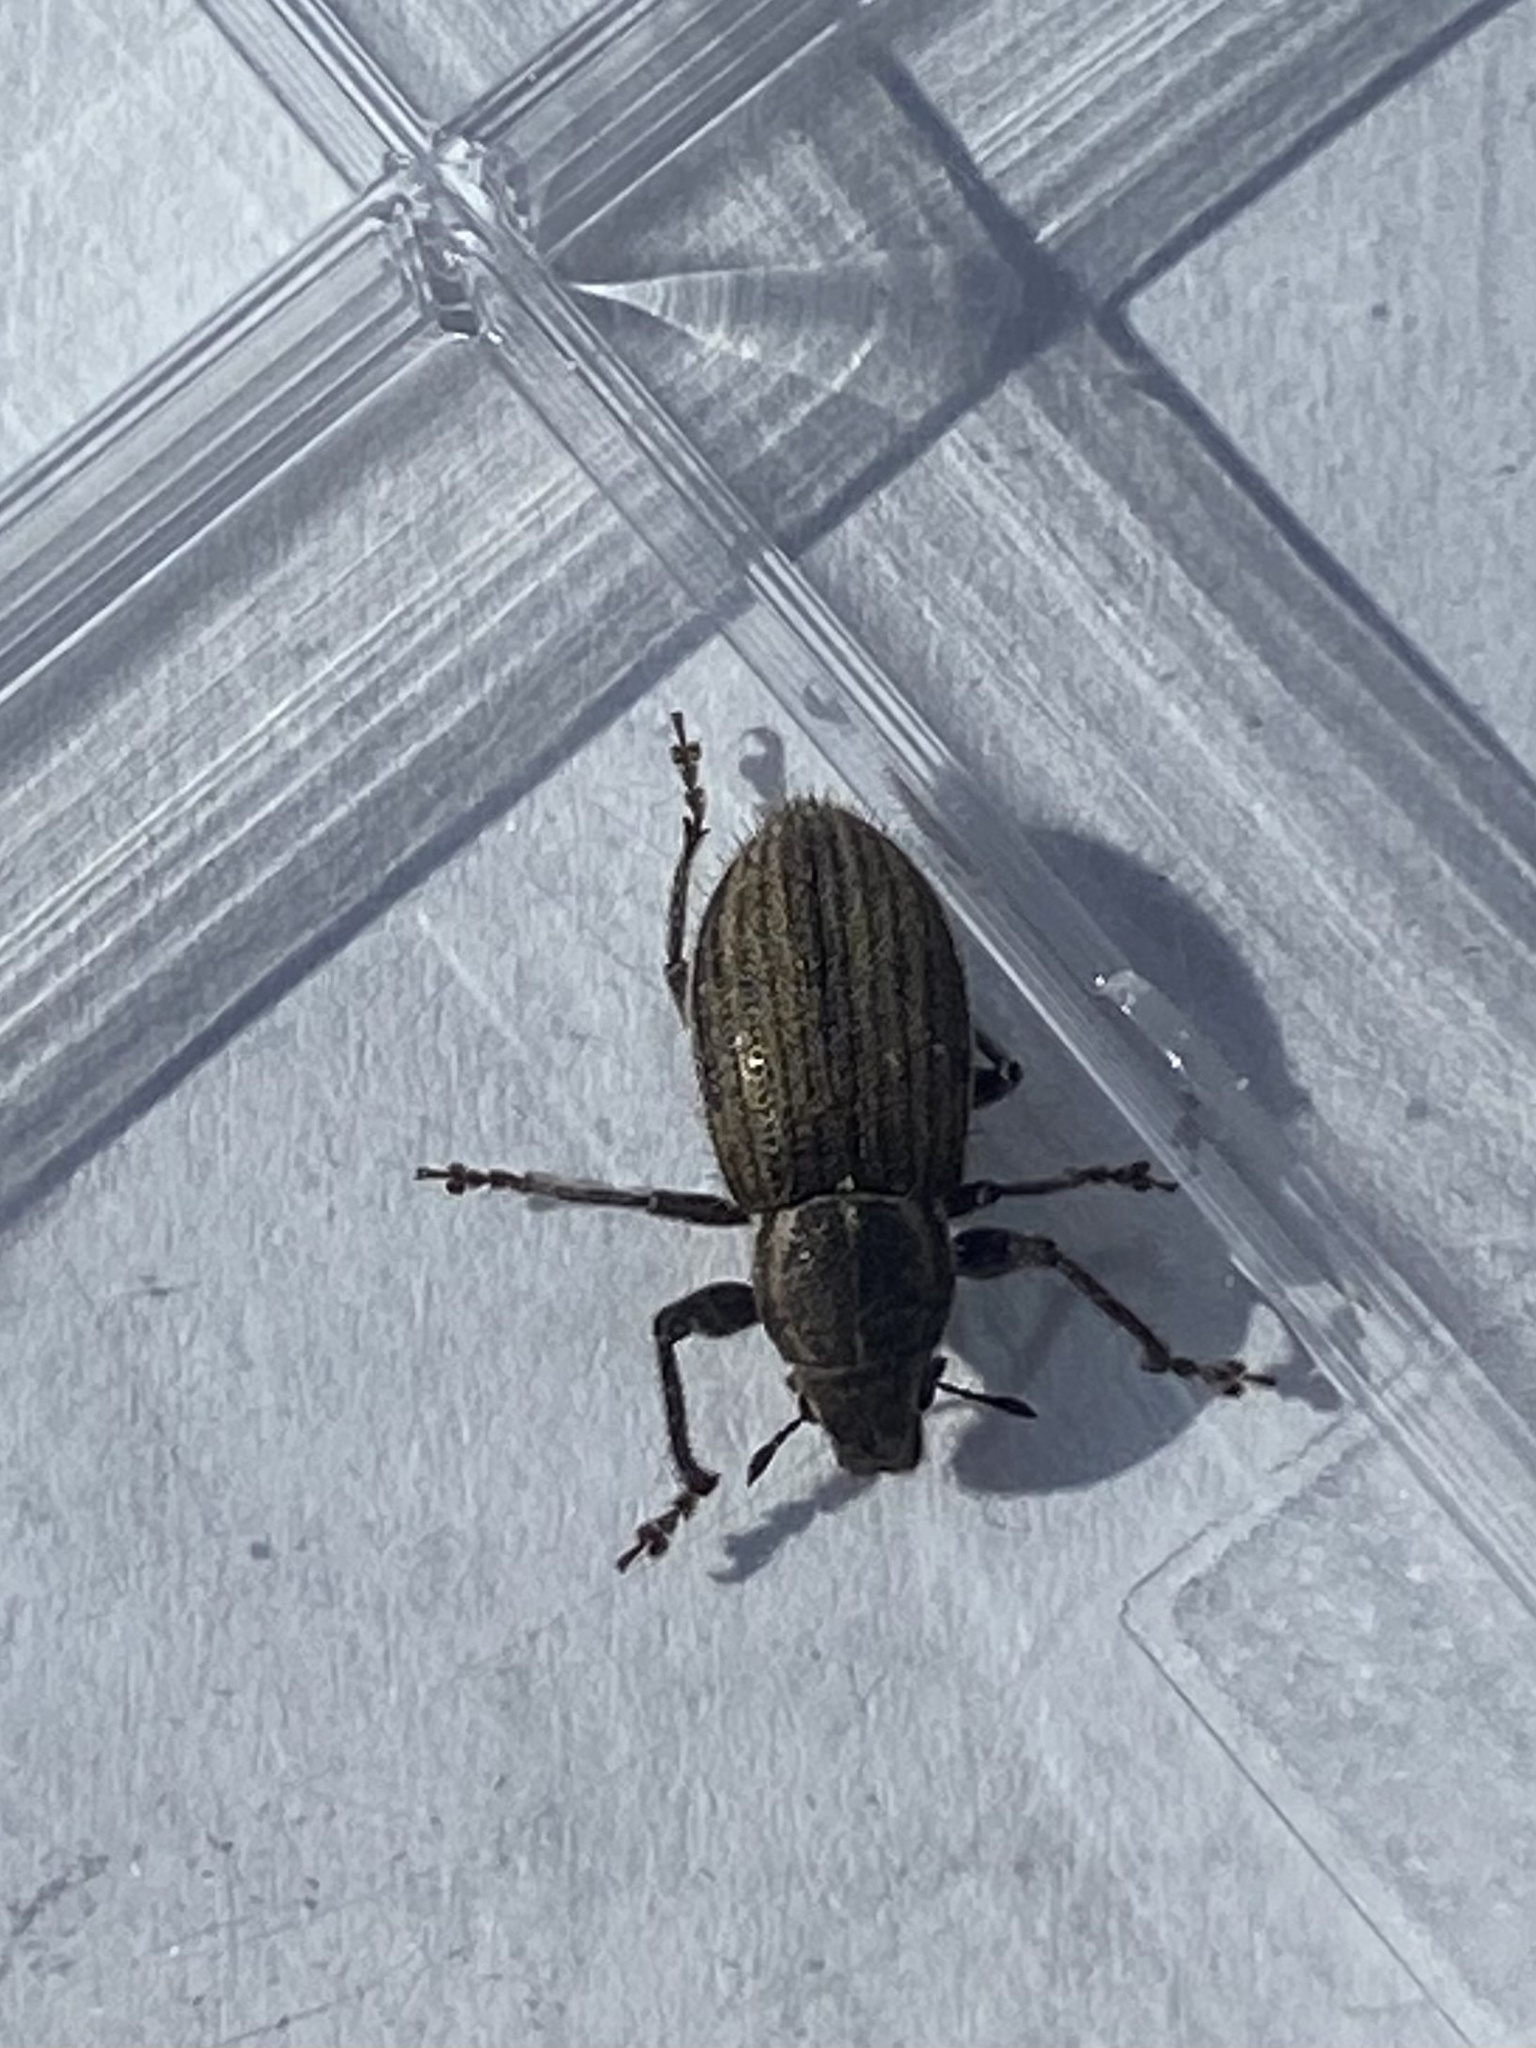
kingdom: Animalia
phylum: Arthropoda
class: Insecta
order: Coleoptera
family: Curculionidae
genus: Naupactus
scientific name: Naupactus leucoloma
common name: Whitefringed beetle
